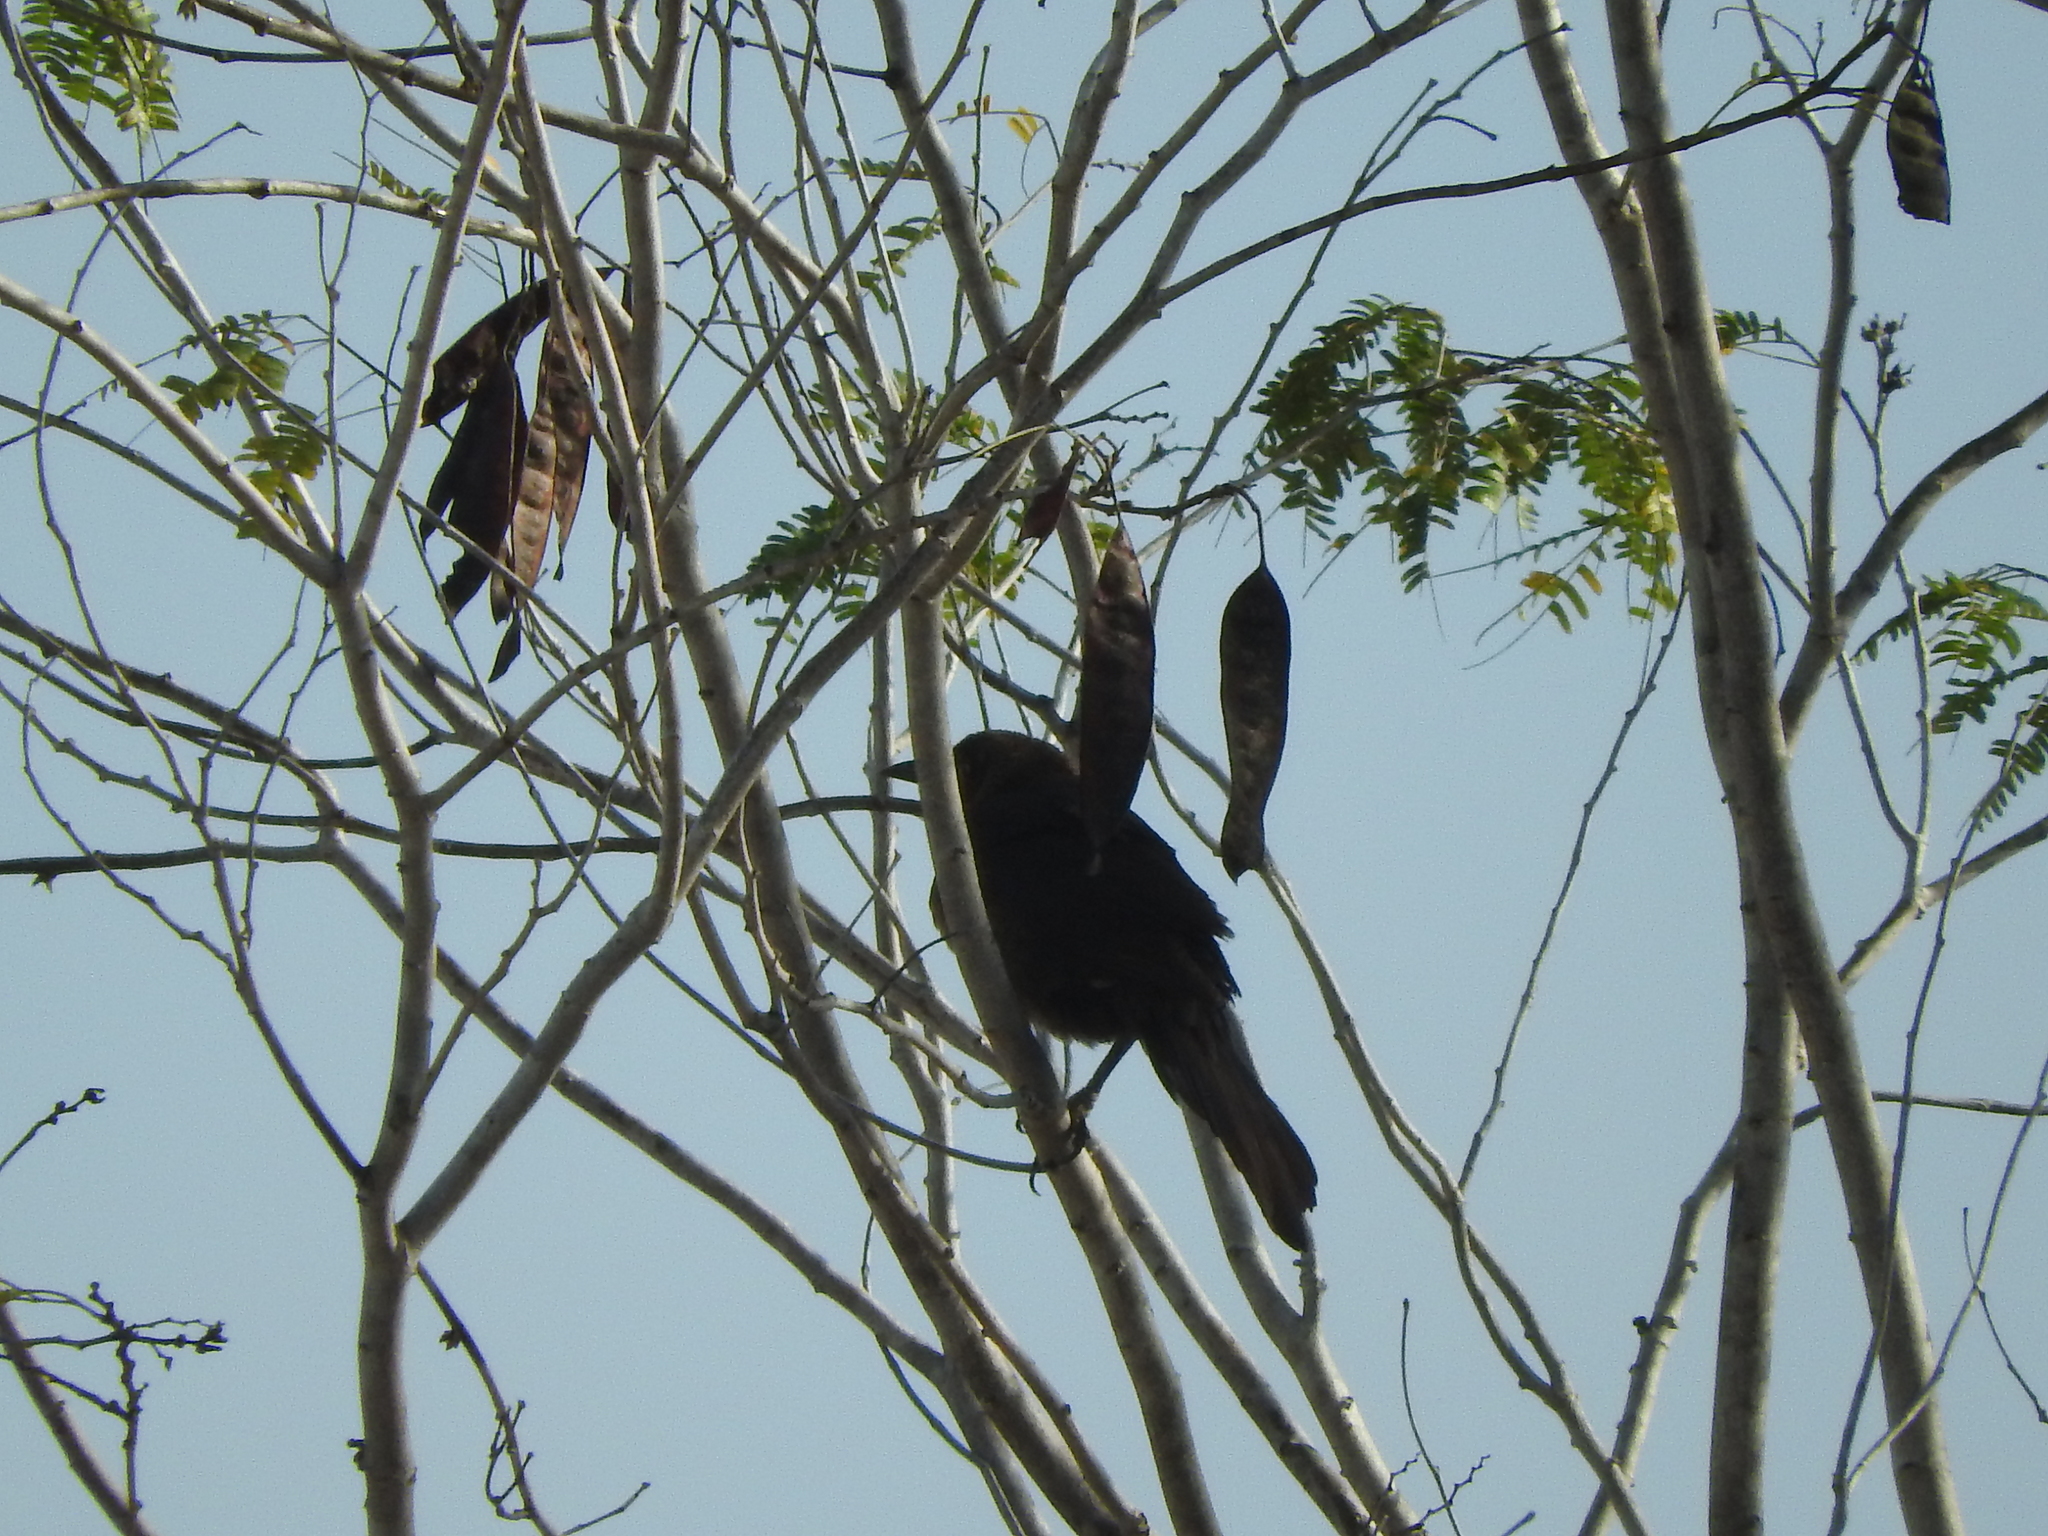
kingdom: Animalia
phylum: Chordata
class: Aves
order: Passeriformes
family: Icteridae
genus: Quiscalus
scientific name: Quiscalus mexicanus
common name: Great-tailed grackle
